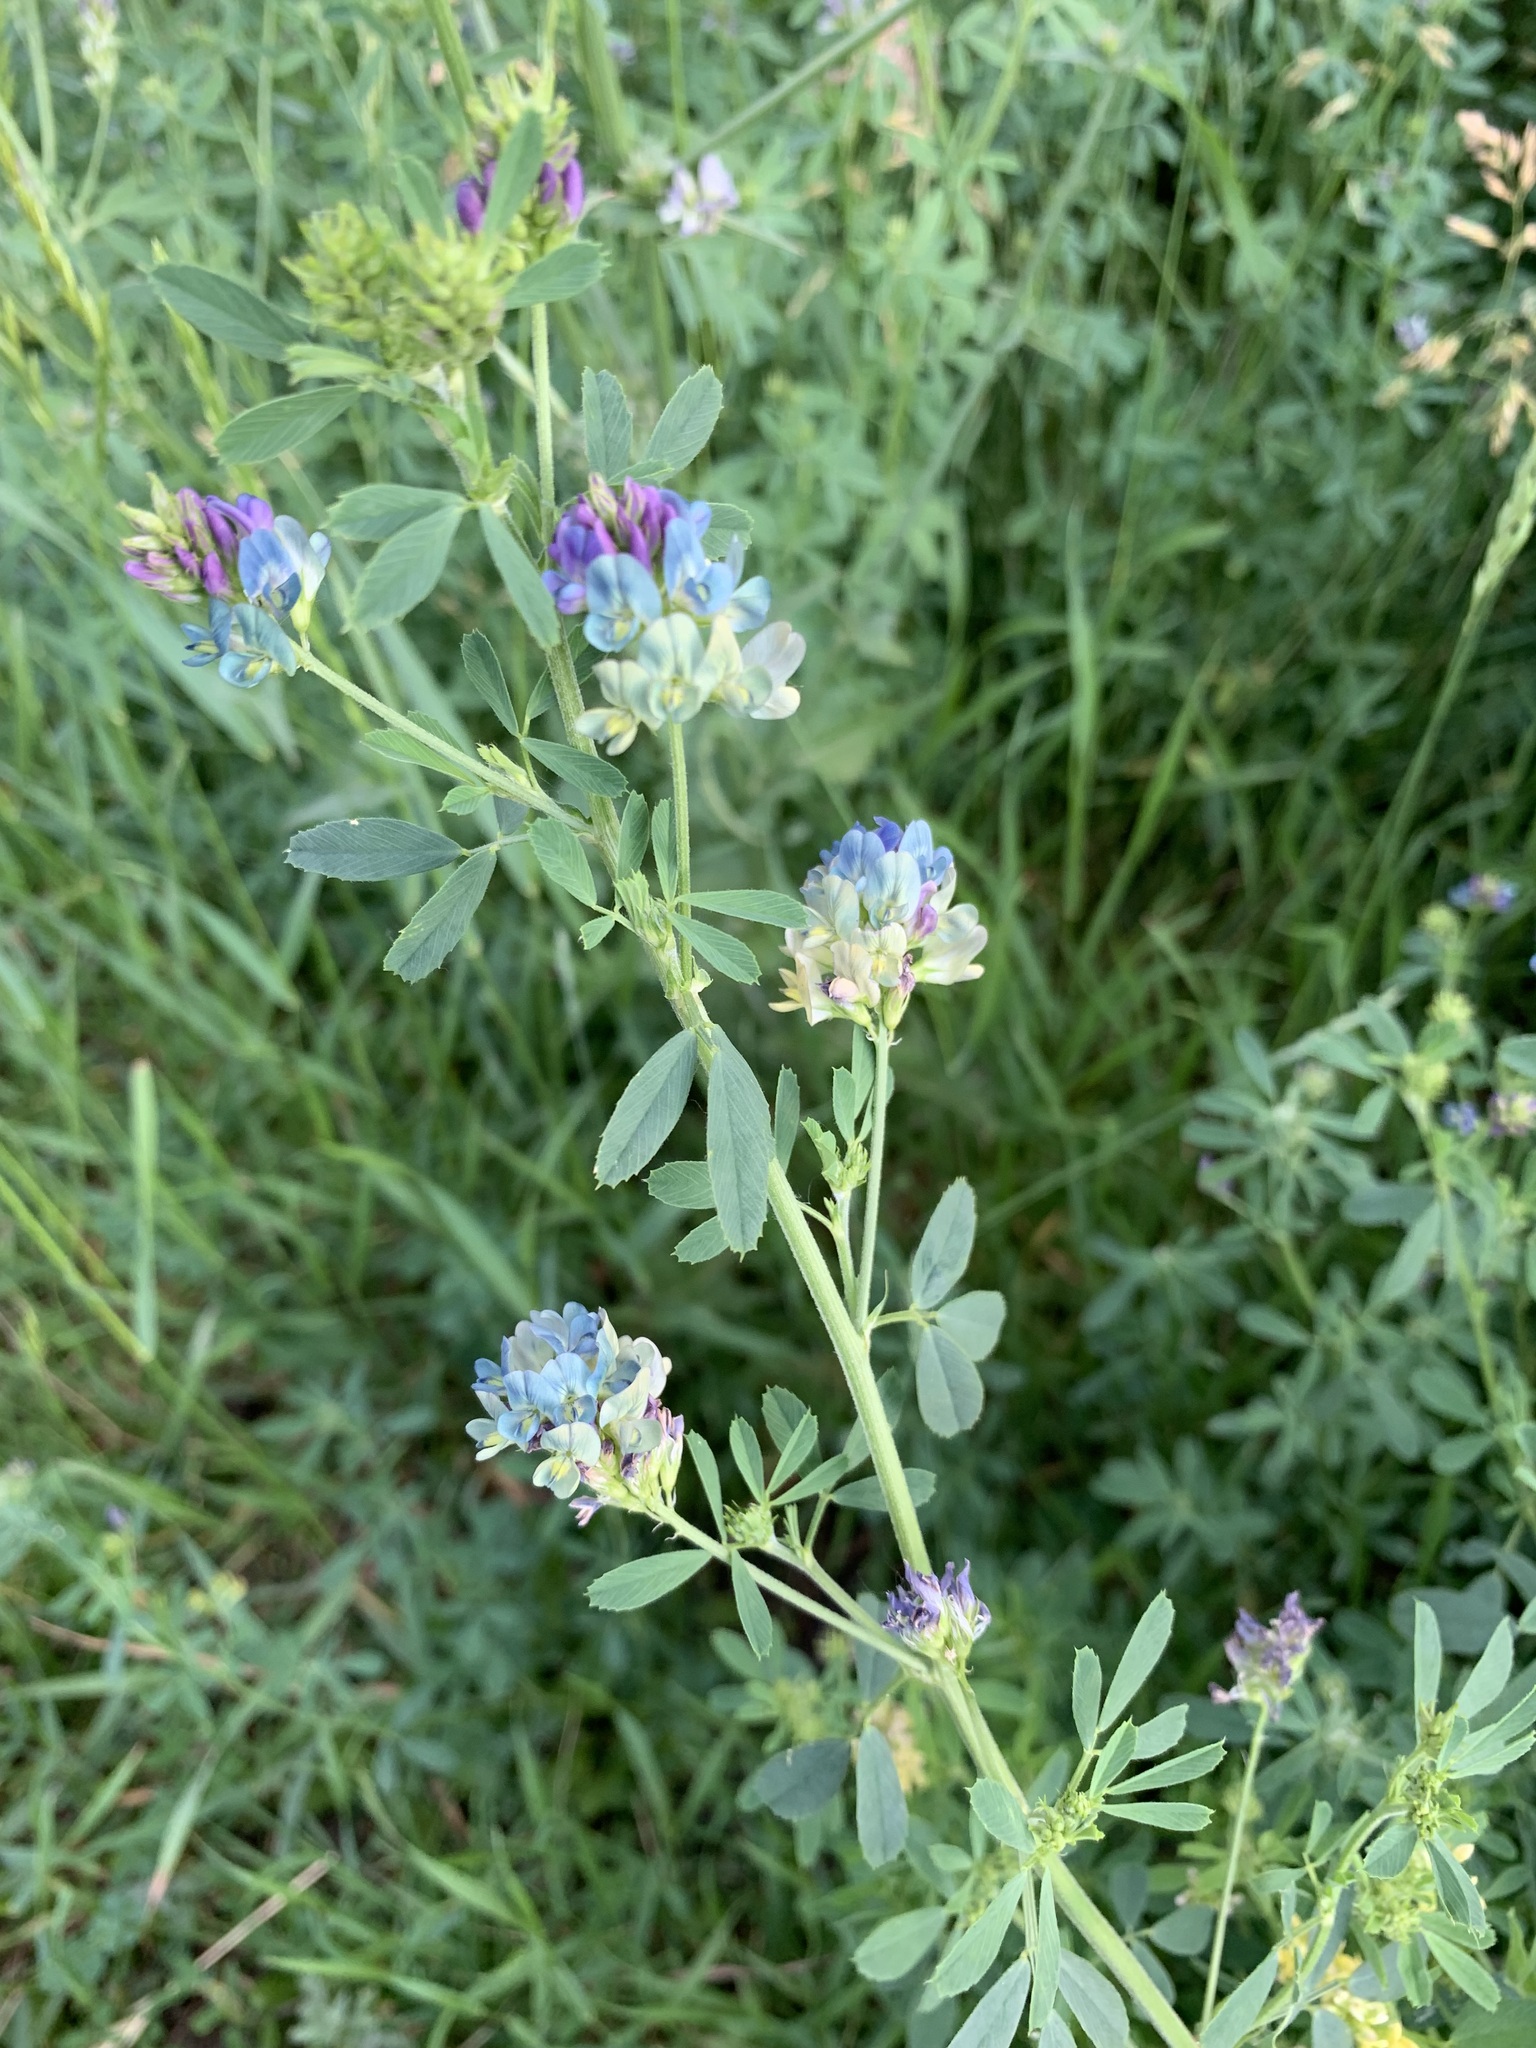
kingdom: Plantae
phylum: Tracheophyta
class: Magnoliopsida
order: Fabales
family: Fabaceae
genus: Medicago
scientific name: Medicago varia
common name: Sand lucerne
